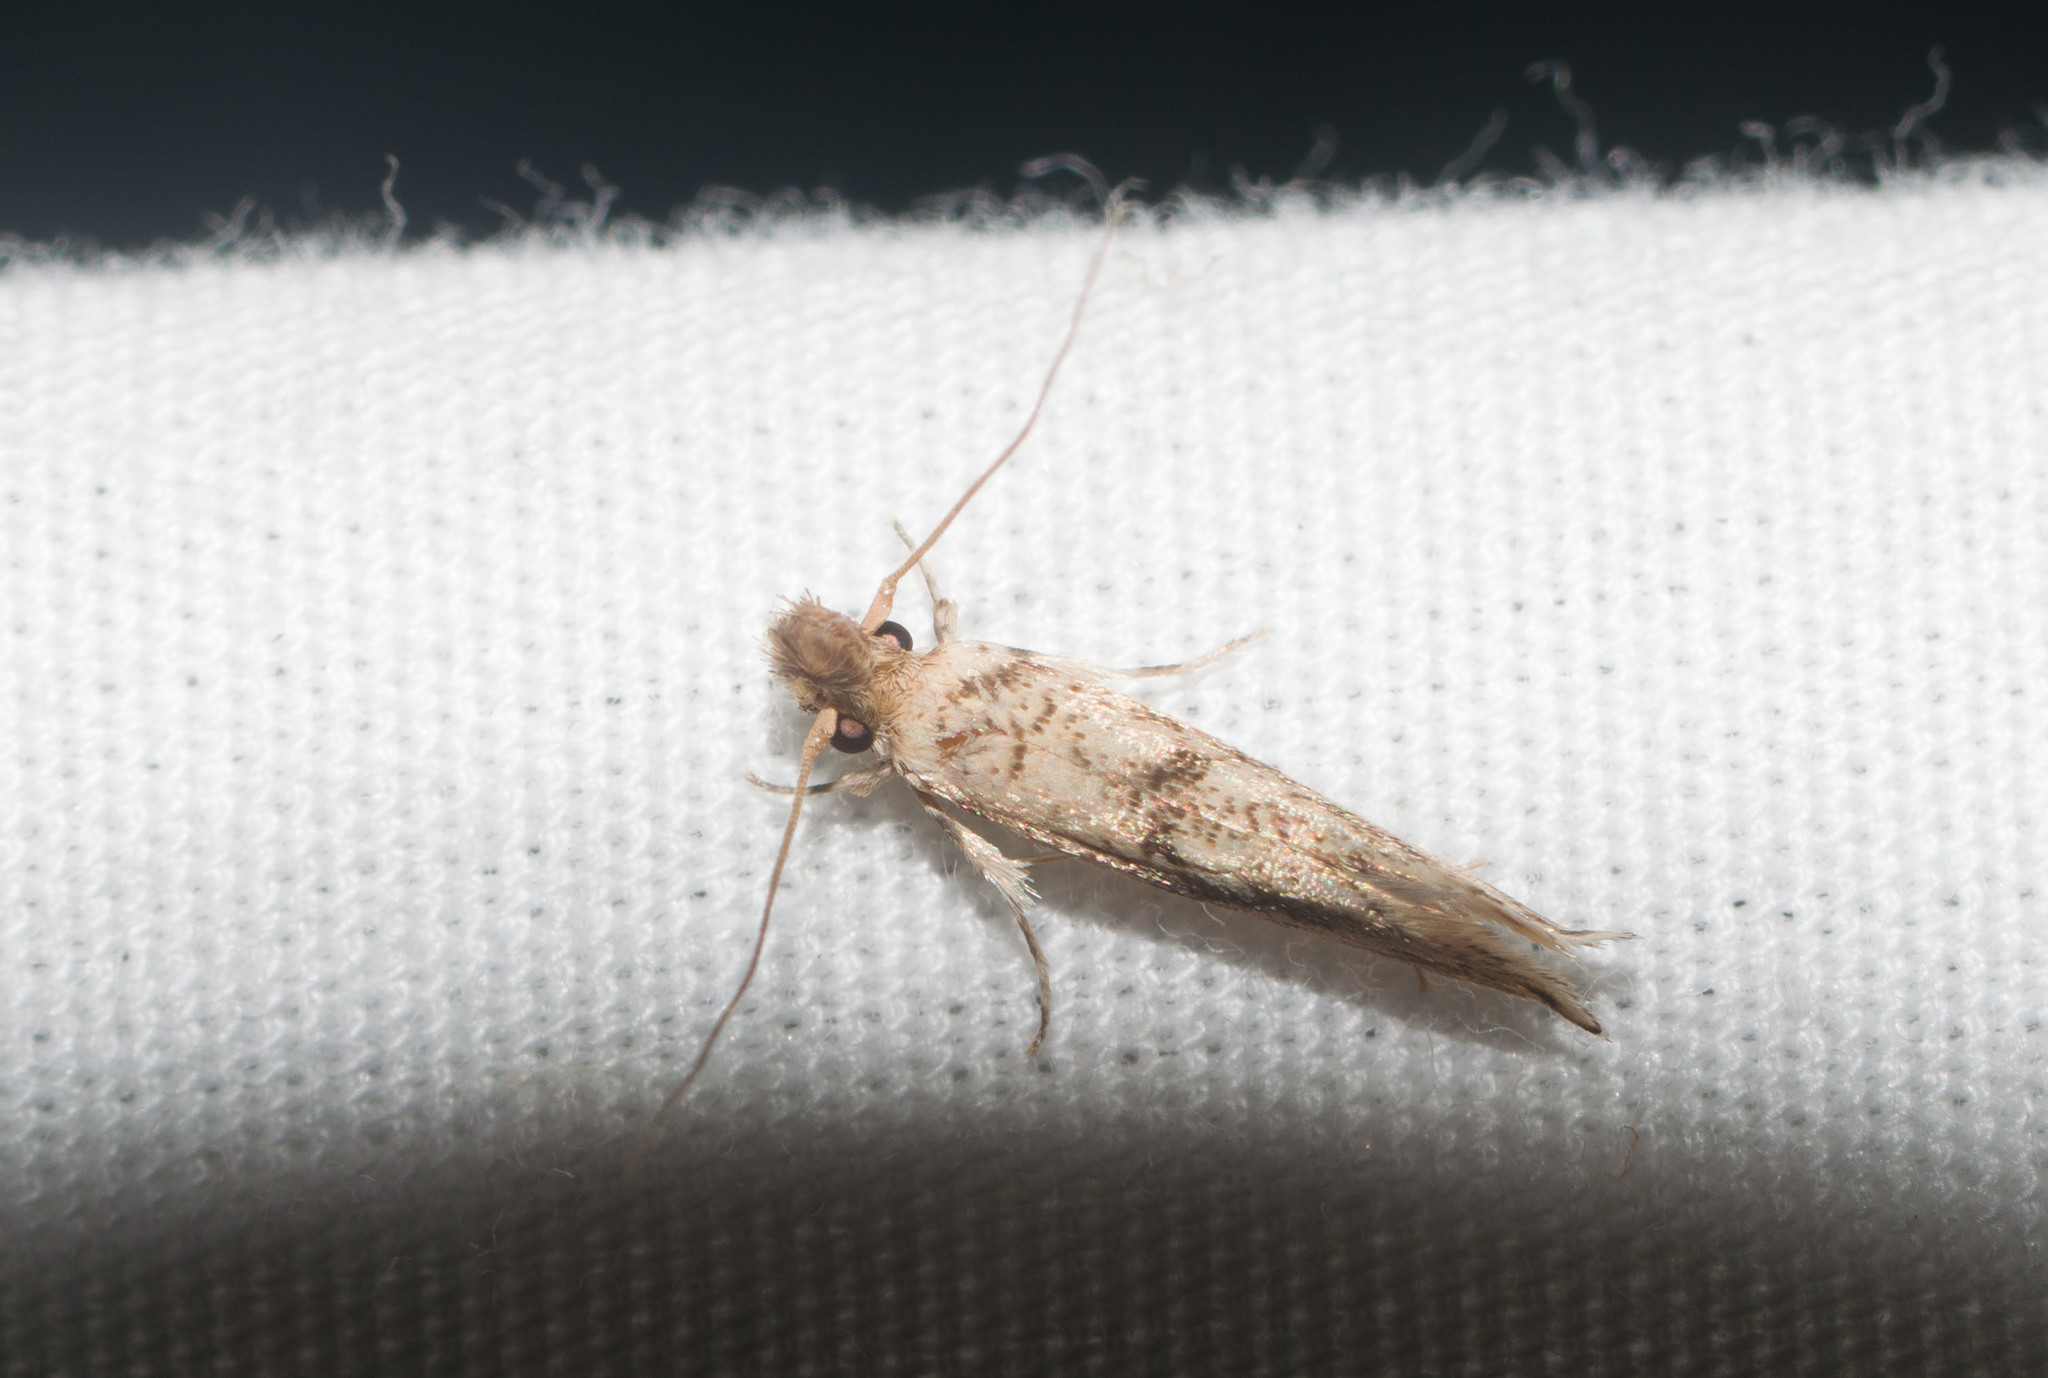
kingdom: Animalia
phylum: Arthropoda
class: Insecta
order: Lepidoptera
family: Tineidae
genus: Erechthias
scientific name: Erechthias pelotricha
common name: Fungus moth
